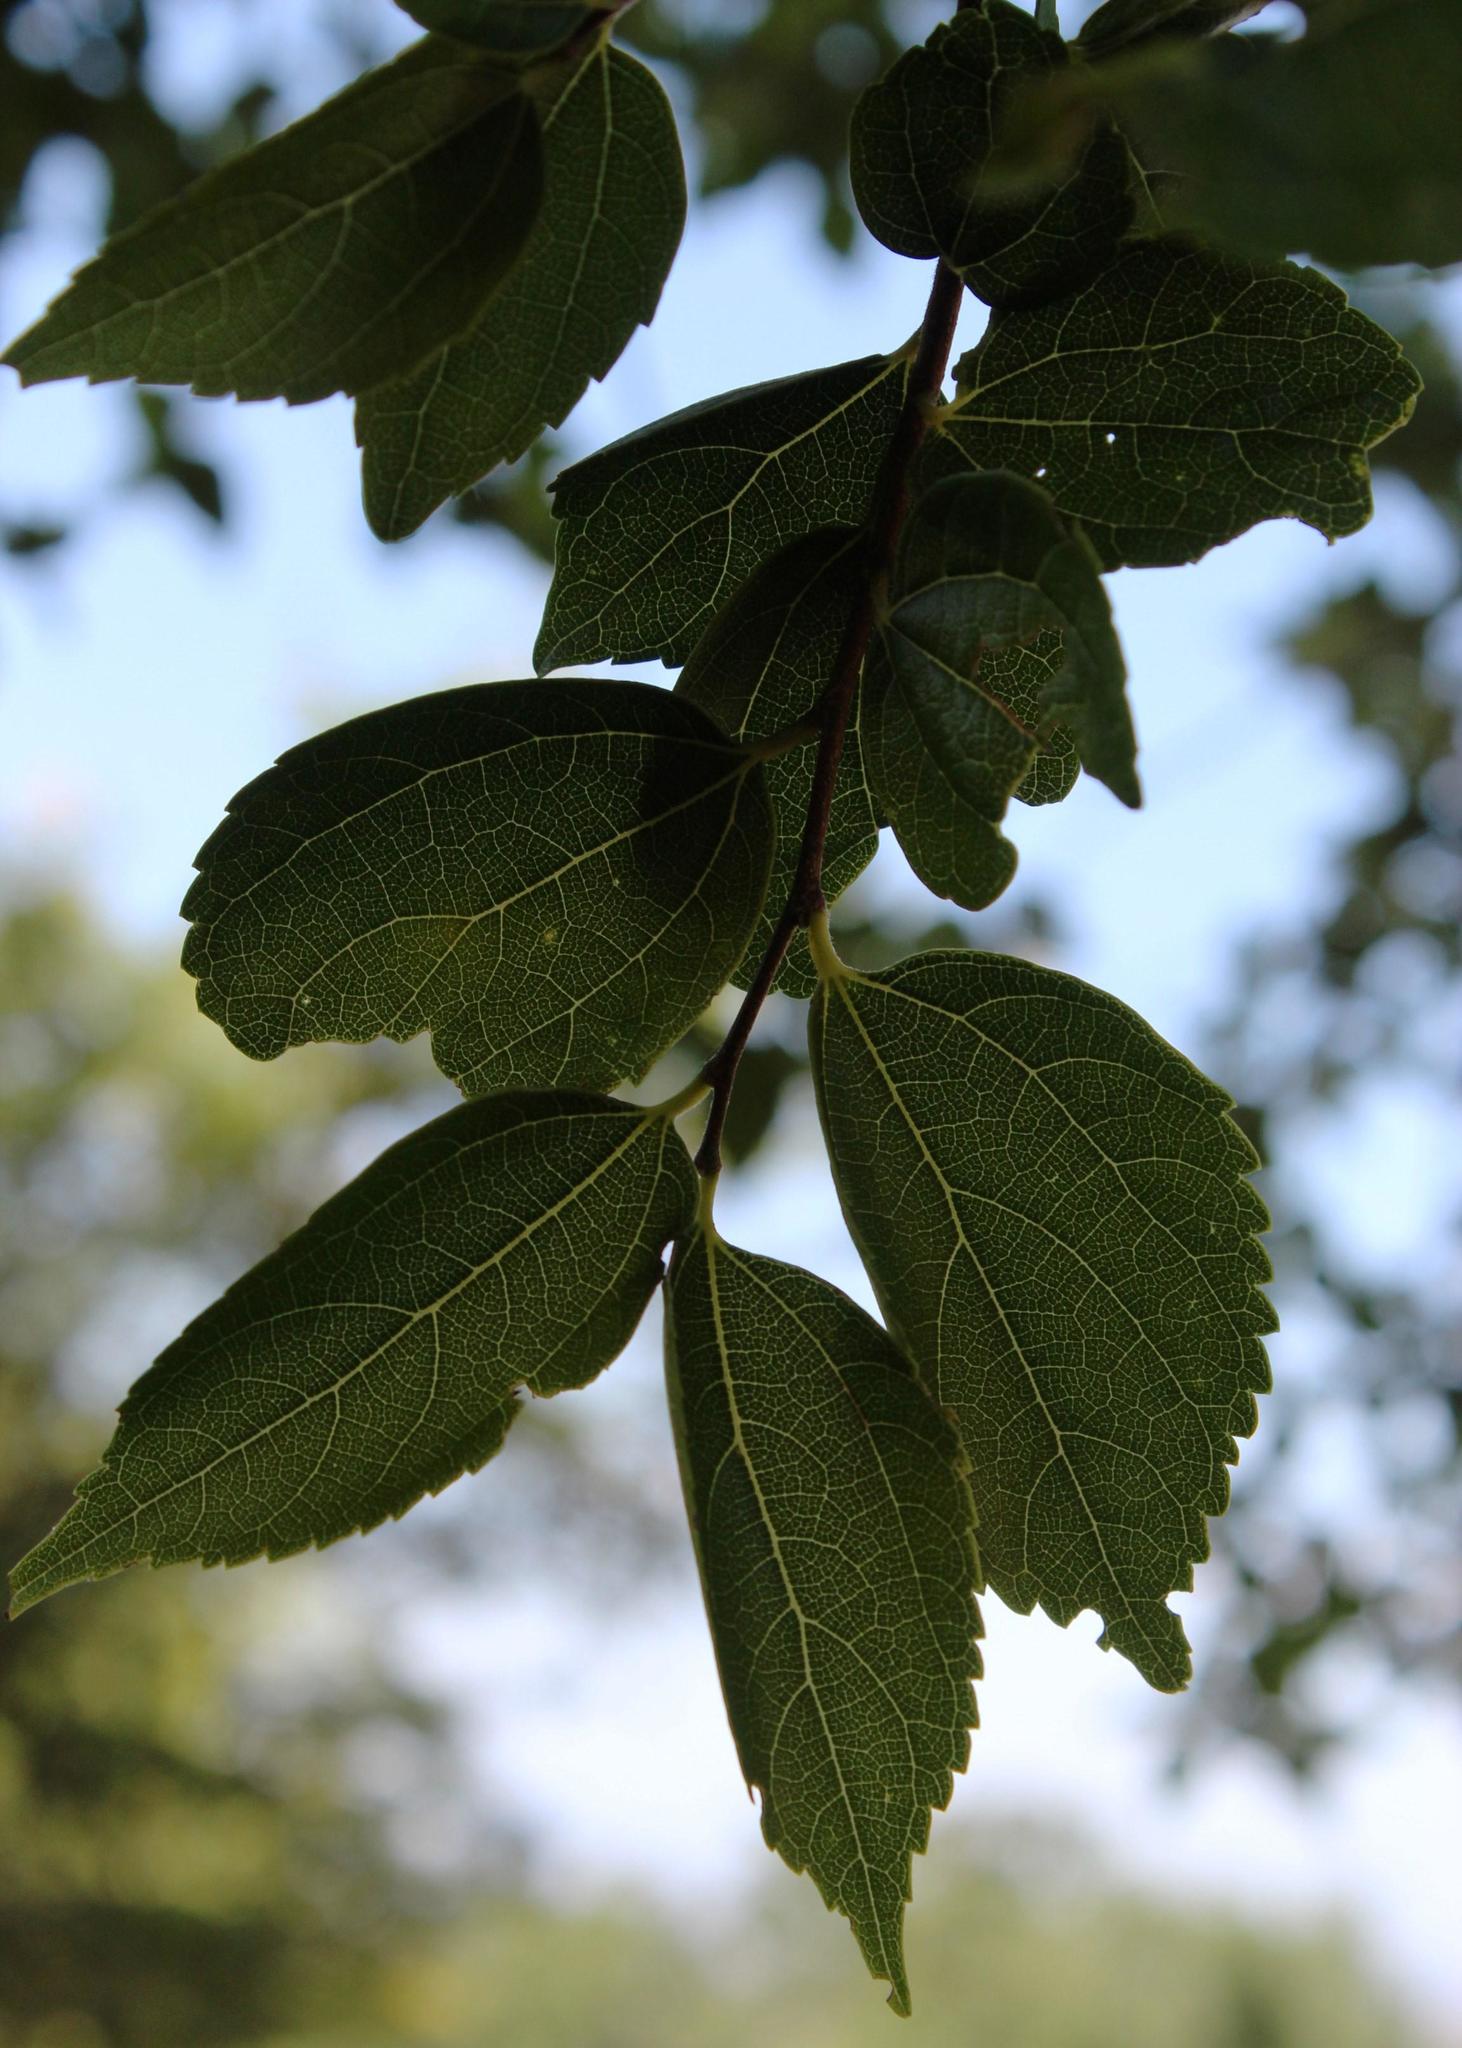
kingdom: Plantae
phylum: Tracheophyta
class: Magnoliopsida
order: Rosales
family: Cannabaceae
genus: Celtis
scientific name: Celtis africana
